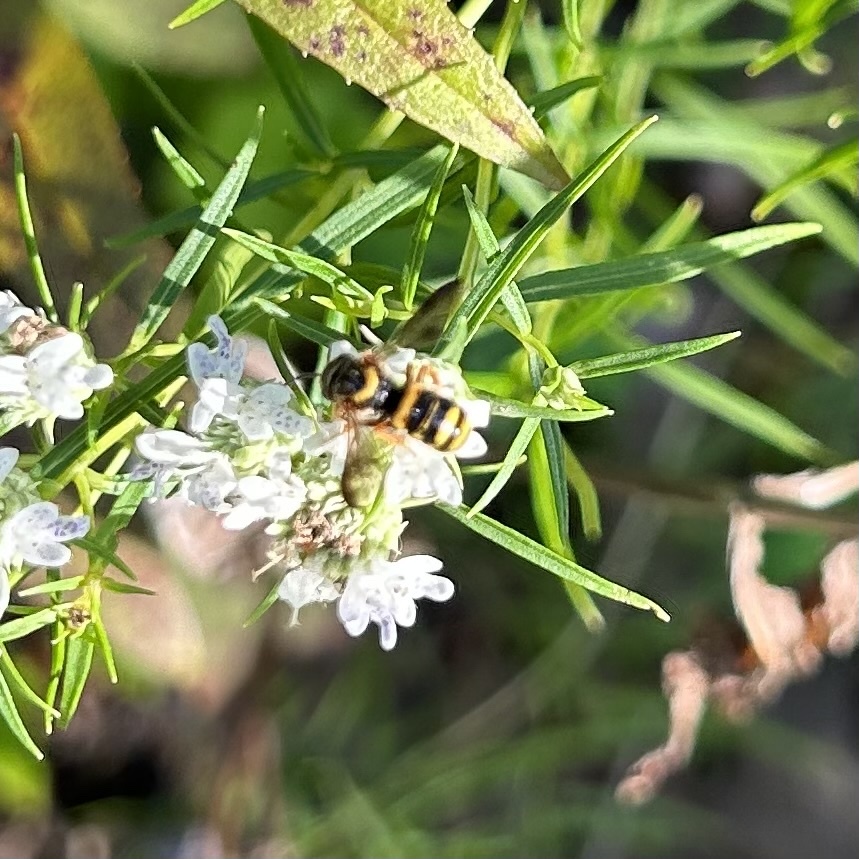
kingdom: Animalia
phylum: Arthropoda
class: Insecta
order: Hymenoptera
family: Megachilidae
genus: Stelis
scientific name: Stelis louisae
